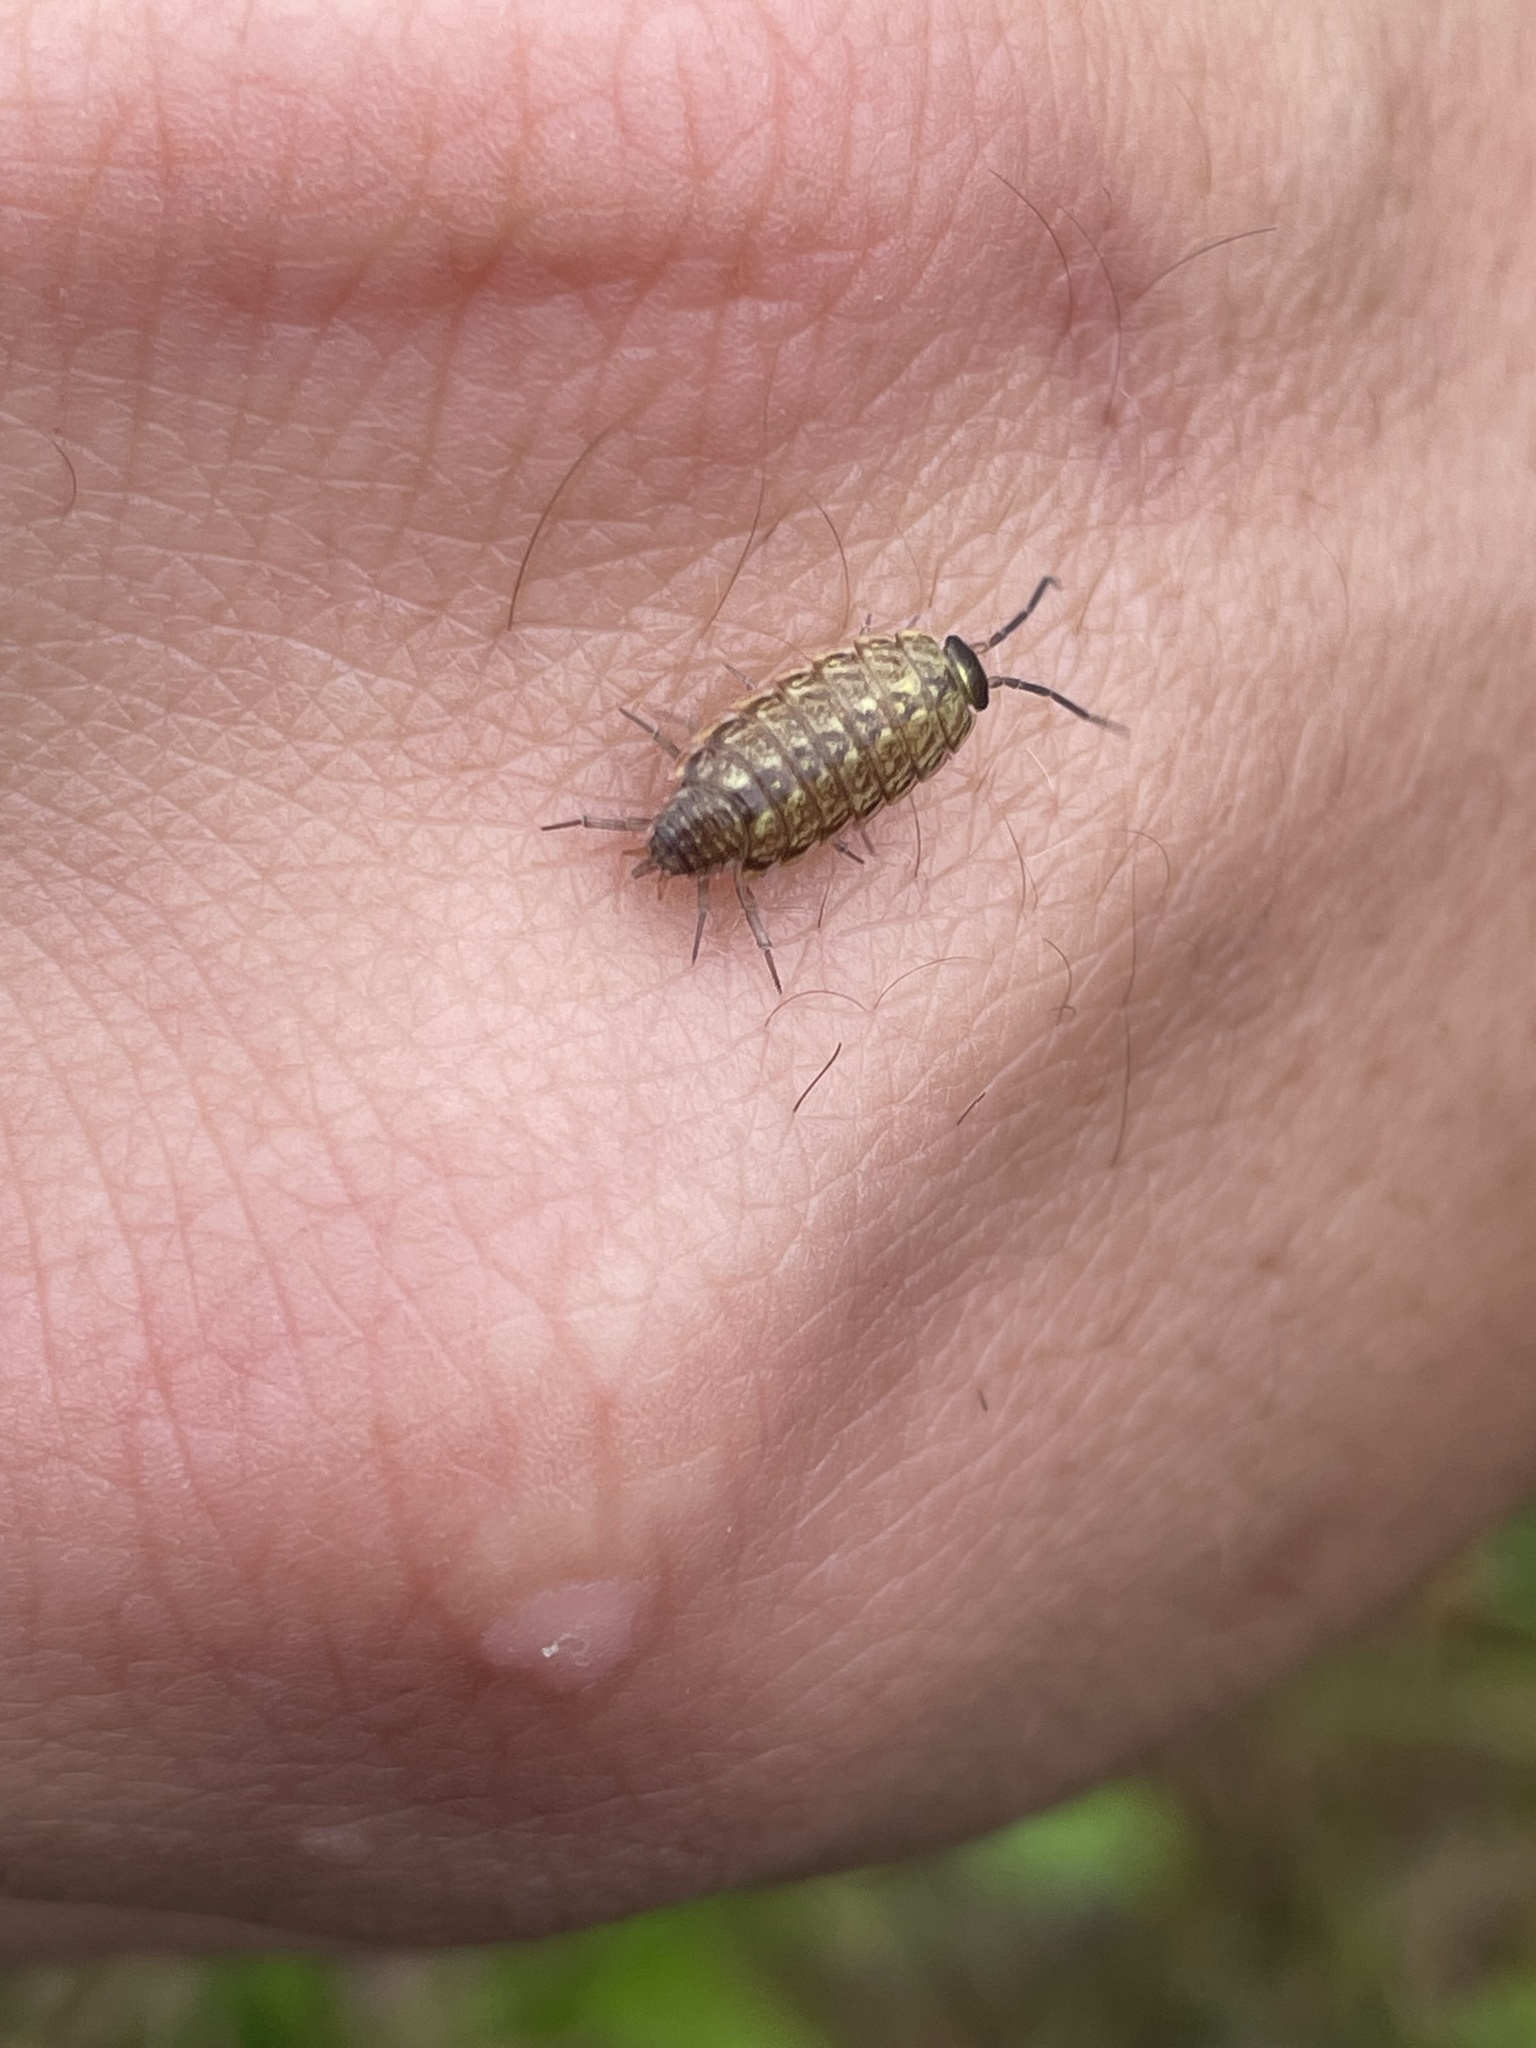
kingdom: Animalia
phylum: Arthropoda
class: Malacostraca
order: Isopoda
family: Philosciidae
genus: Philoscia
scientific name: Philoscia muscorum
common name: Common striped woodlouse
